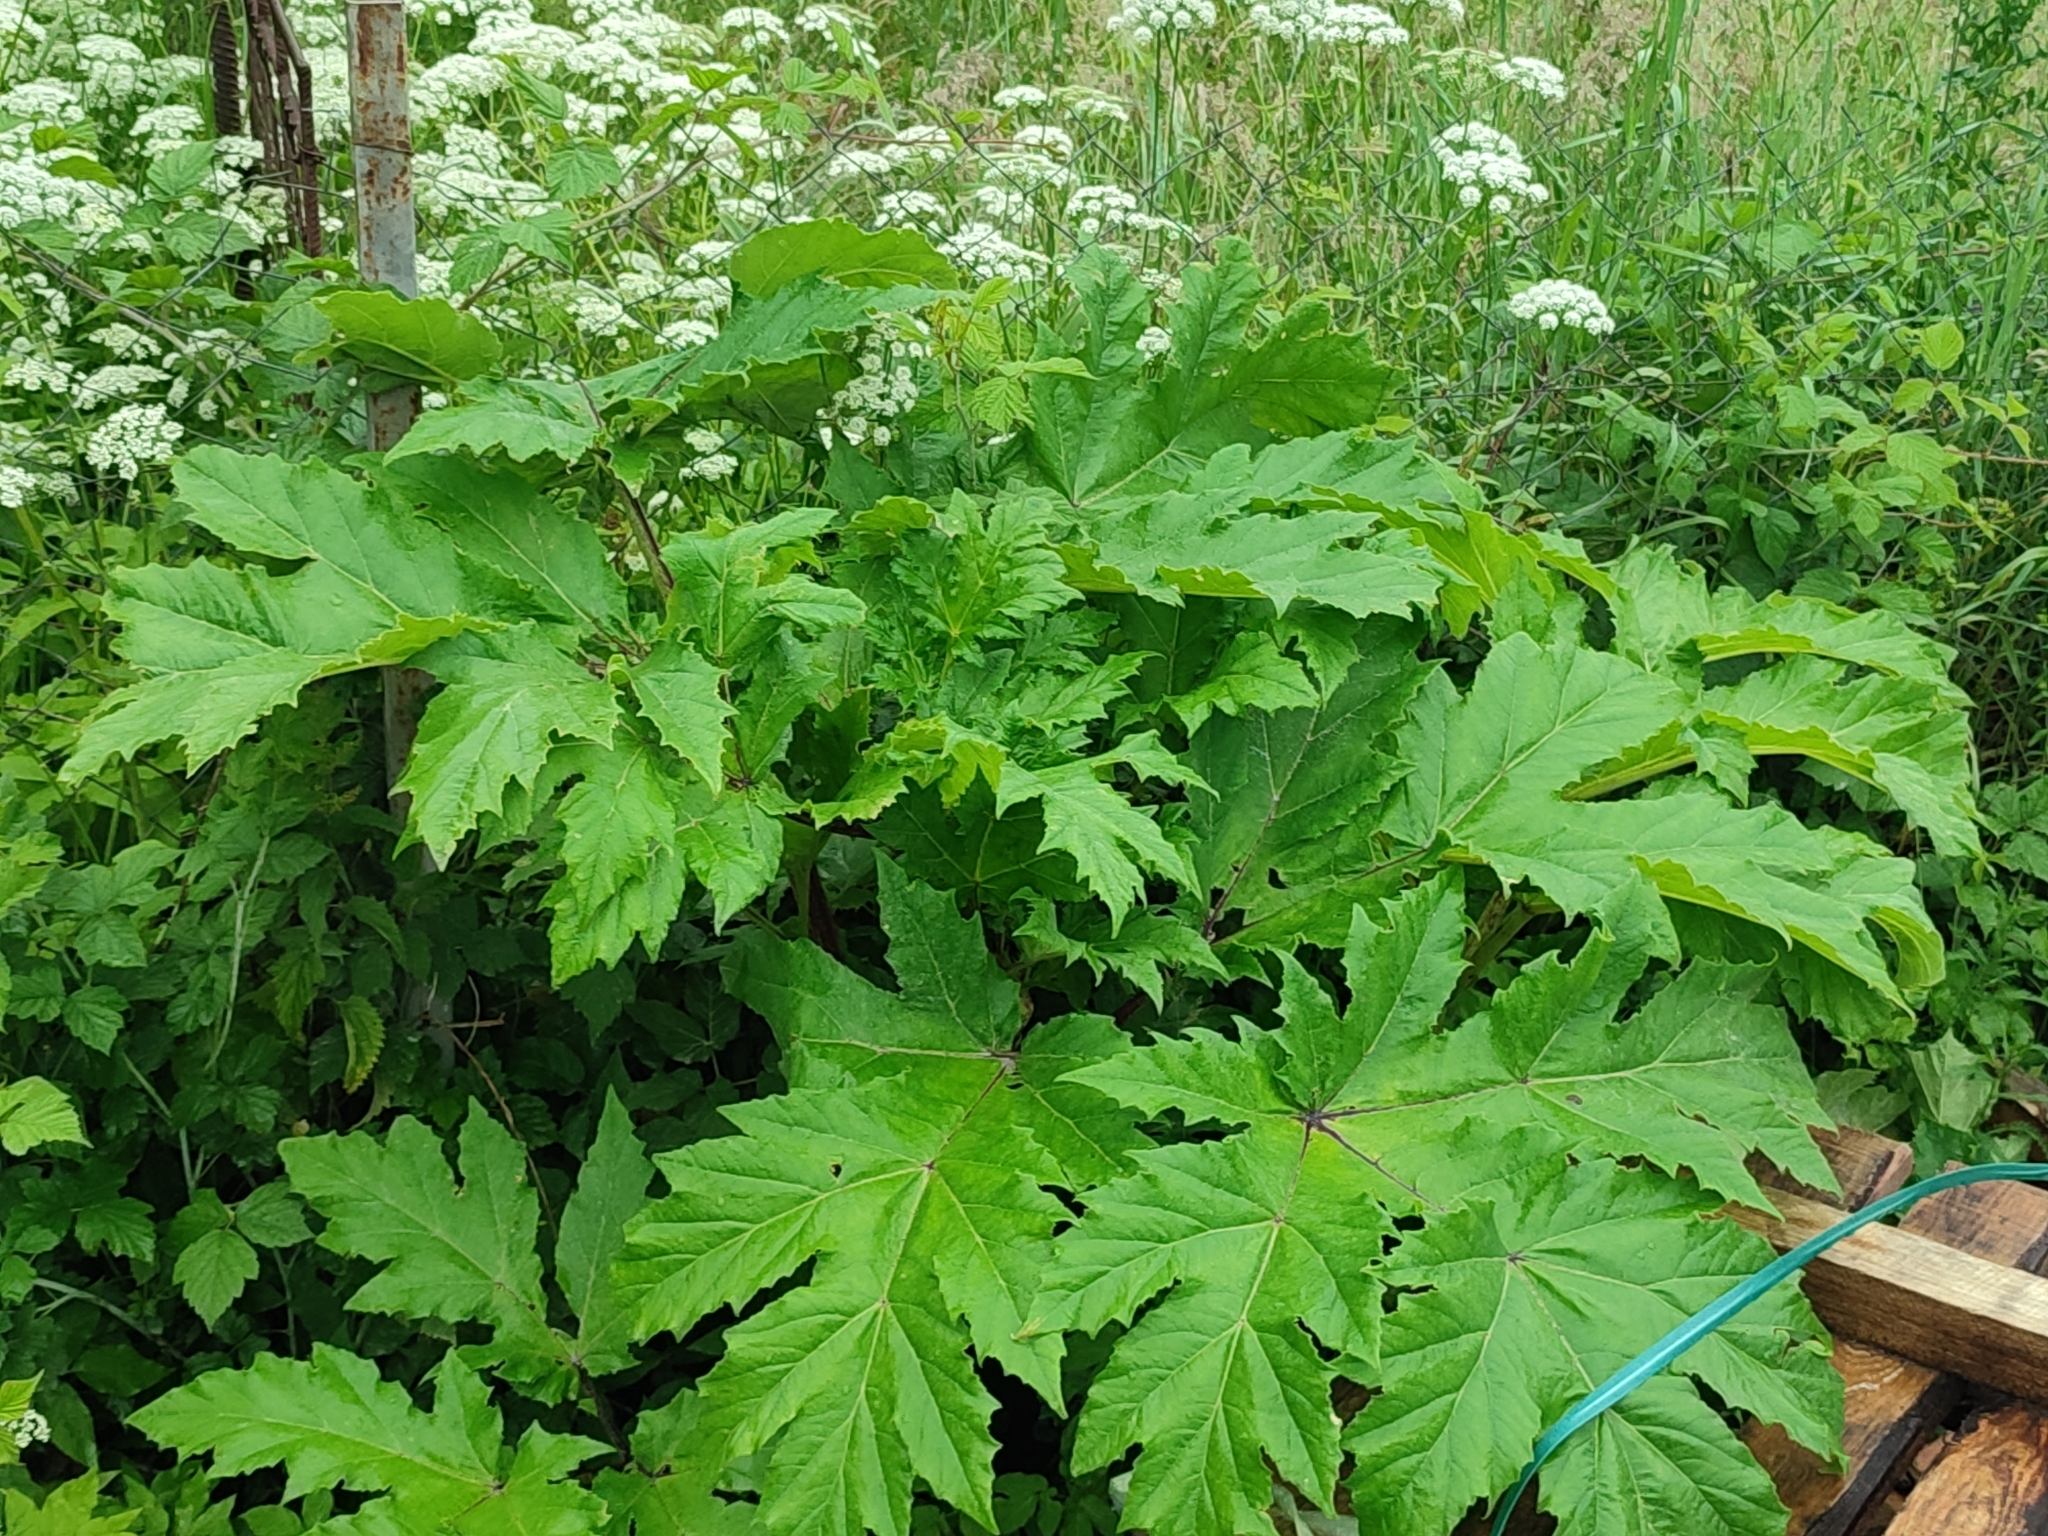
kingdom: Plantae
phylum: Tracheophyta
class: Magnoliopsida
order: Apiales
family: Apiaceae
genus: Heracleum
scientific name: Heracleum sosnowskyi
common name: Sosnowsky's hogweed
